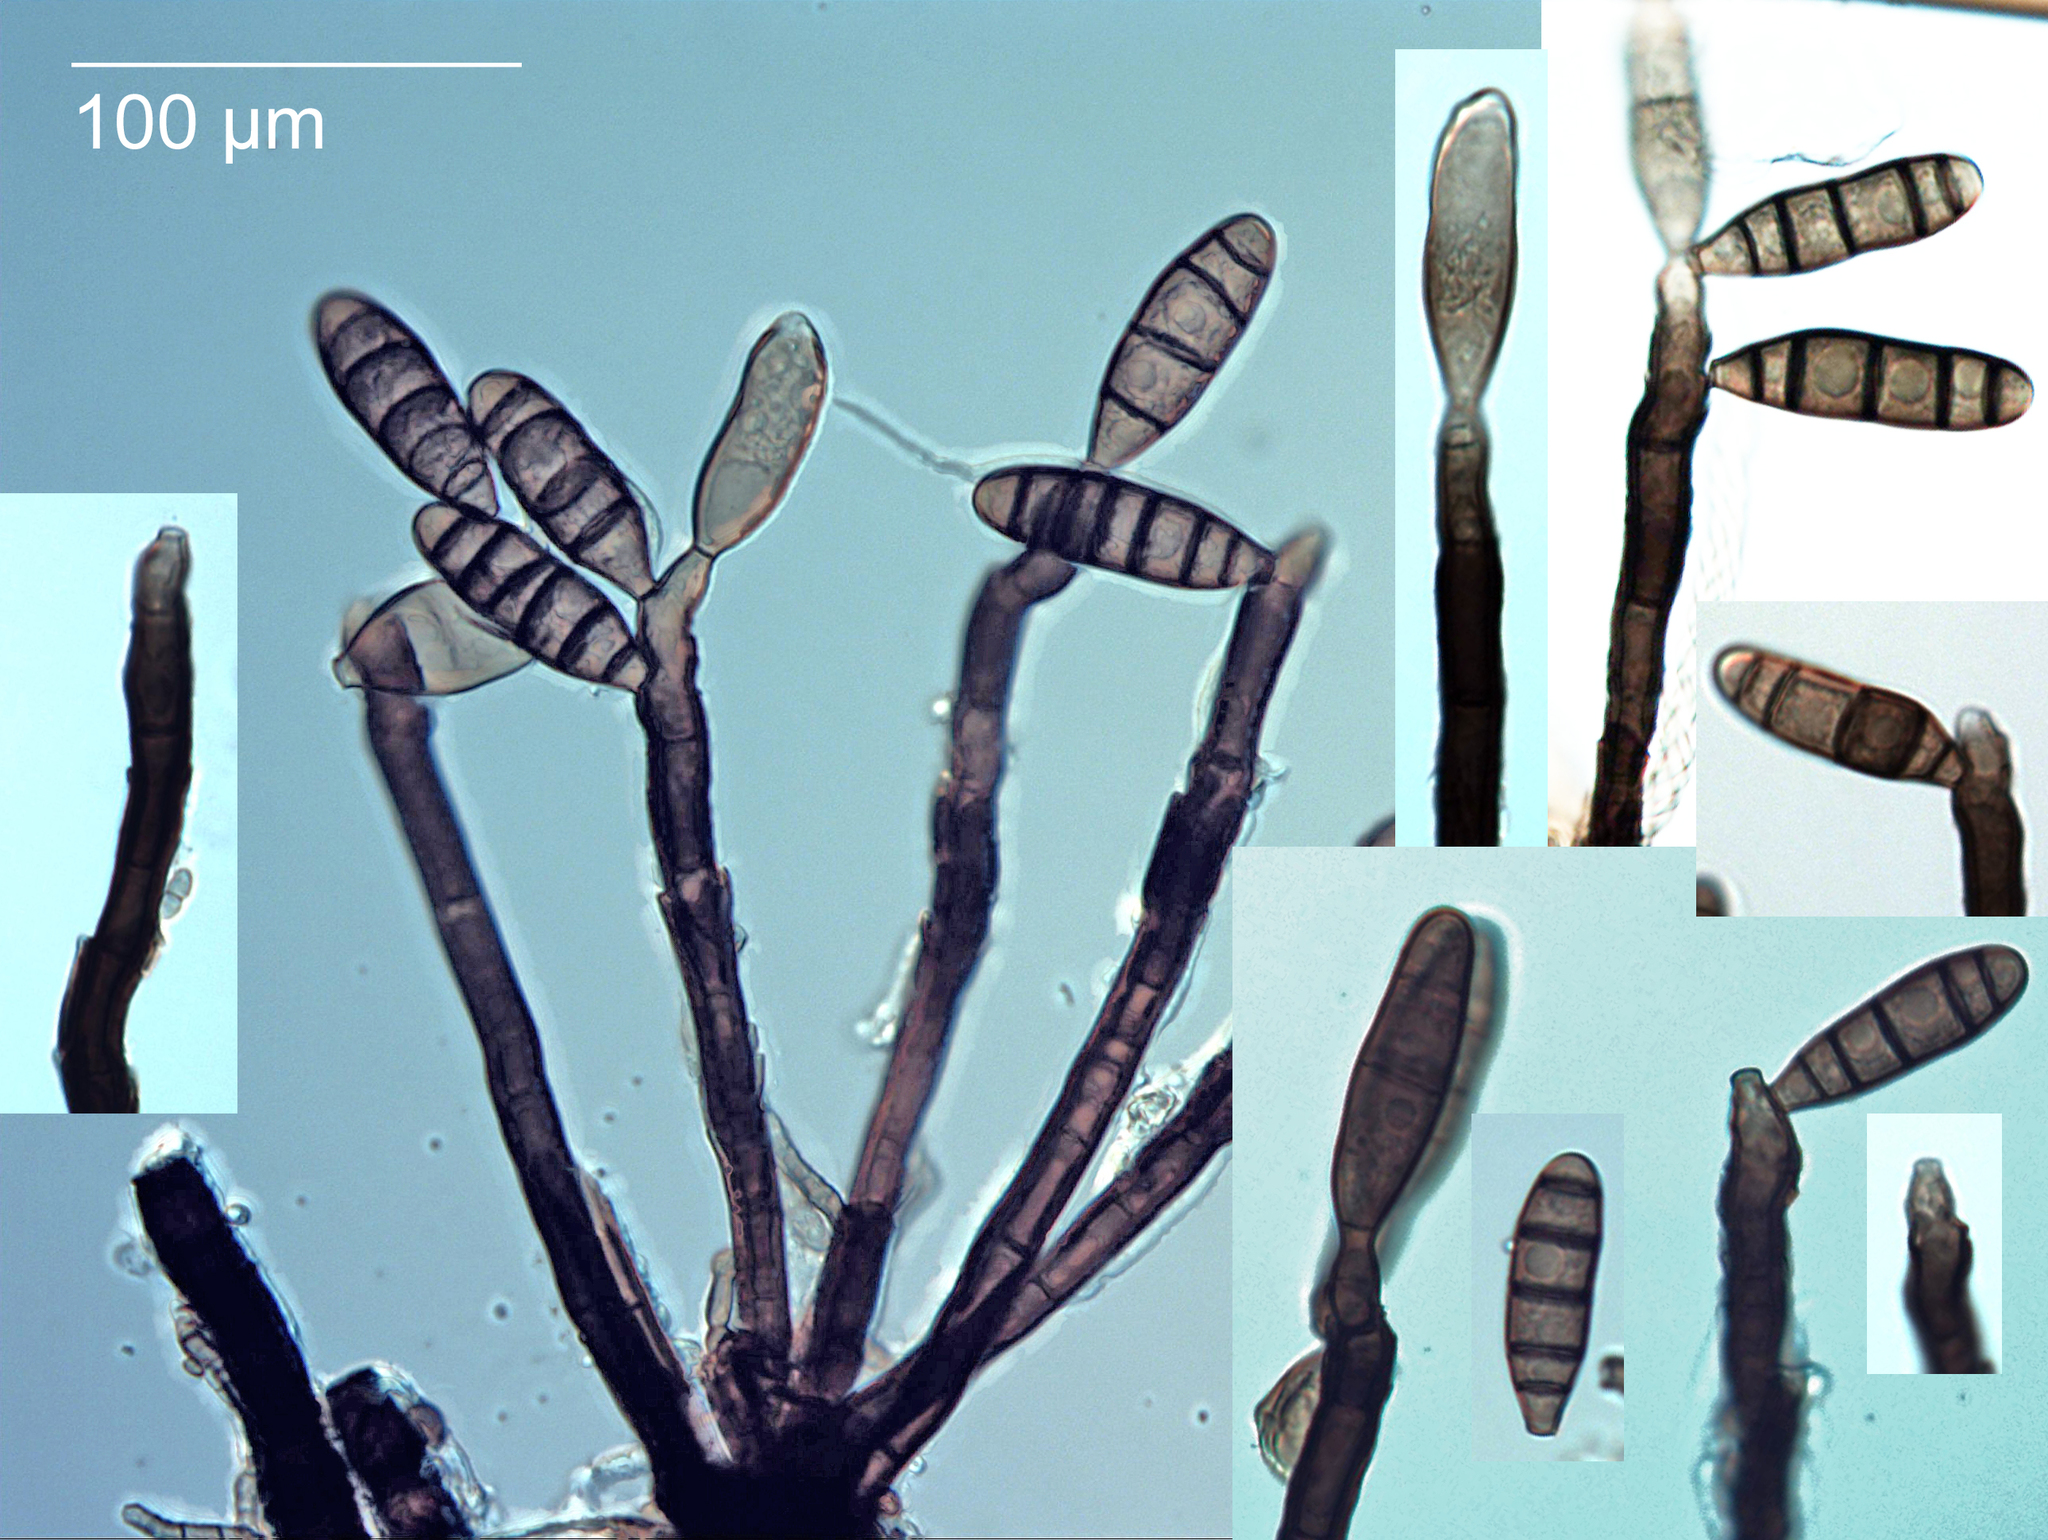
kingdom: Fungi
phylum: Ascomycota
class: Dothideomycetes
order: Pleosporales
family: Melanommataceae
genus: Nigrolentilocus
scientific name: Nigrolentilocus variabilis
